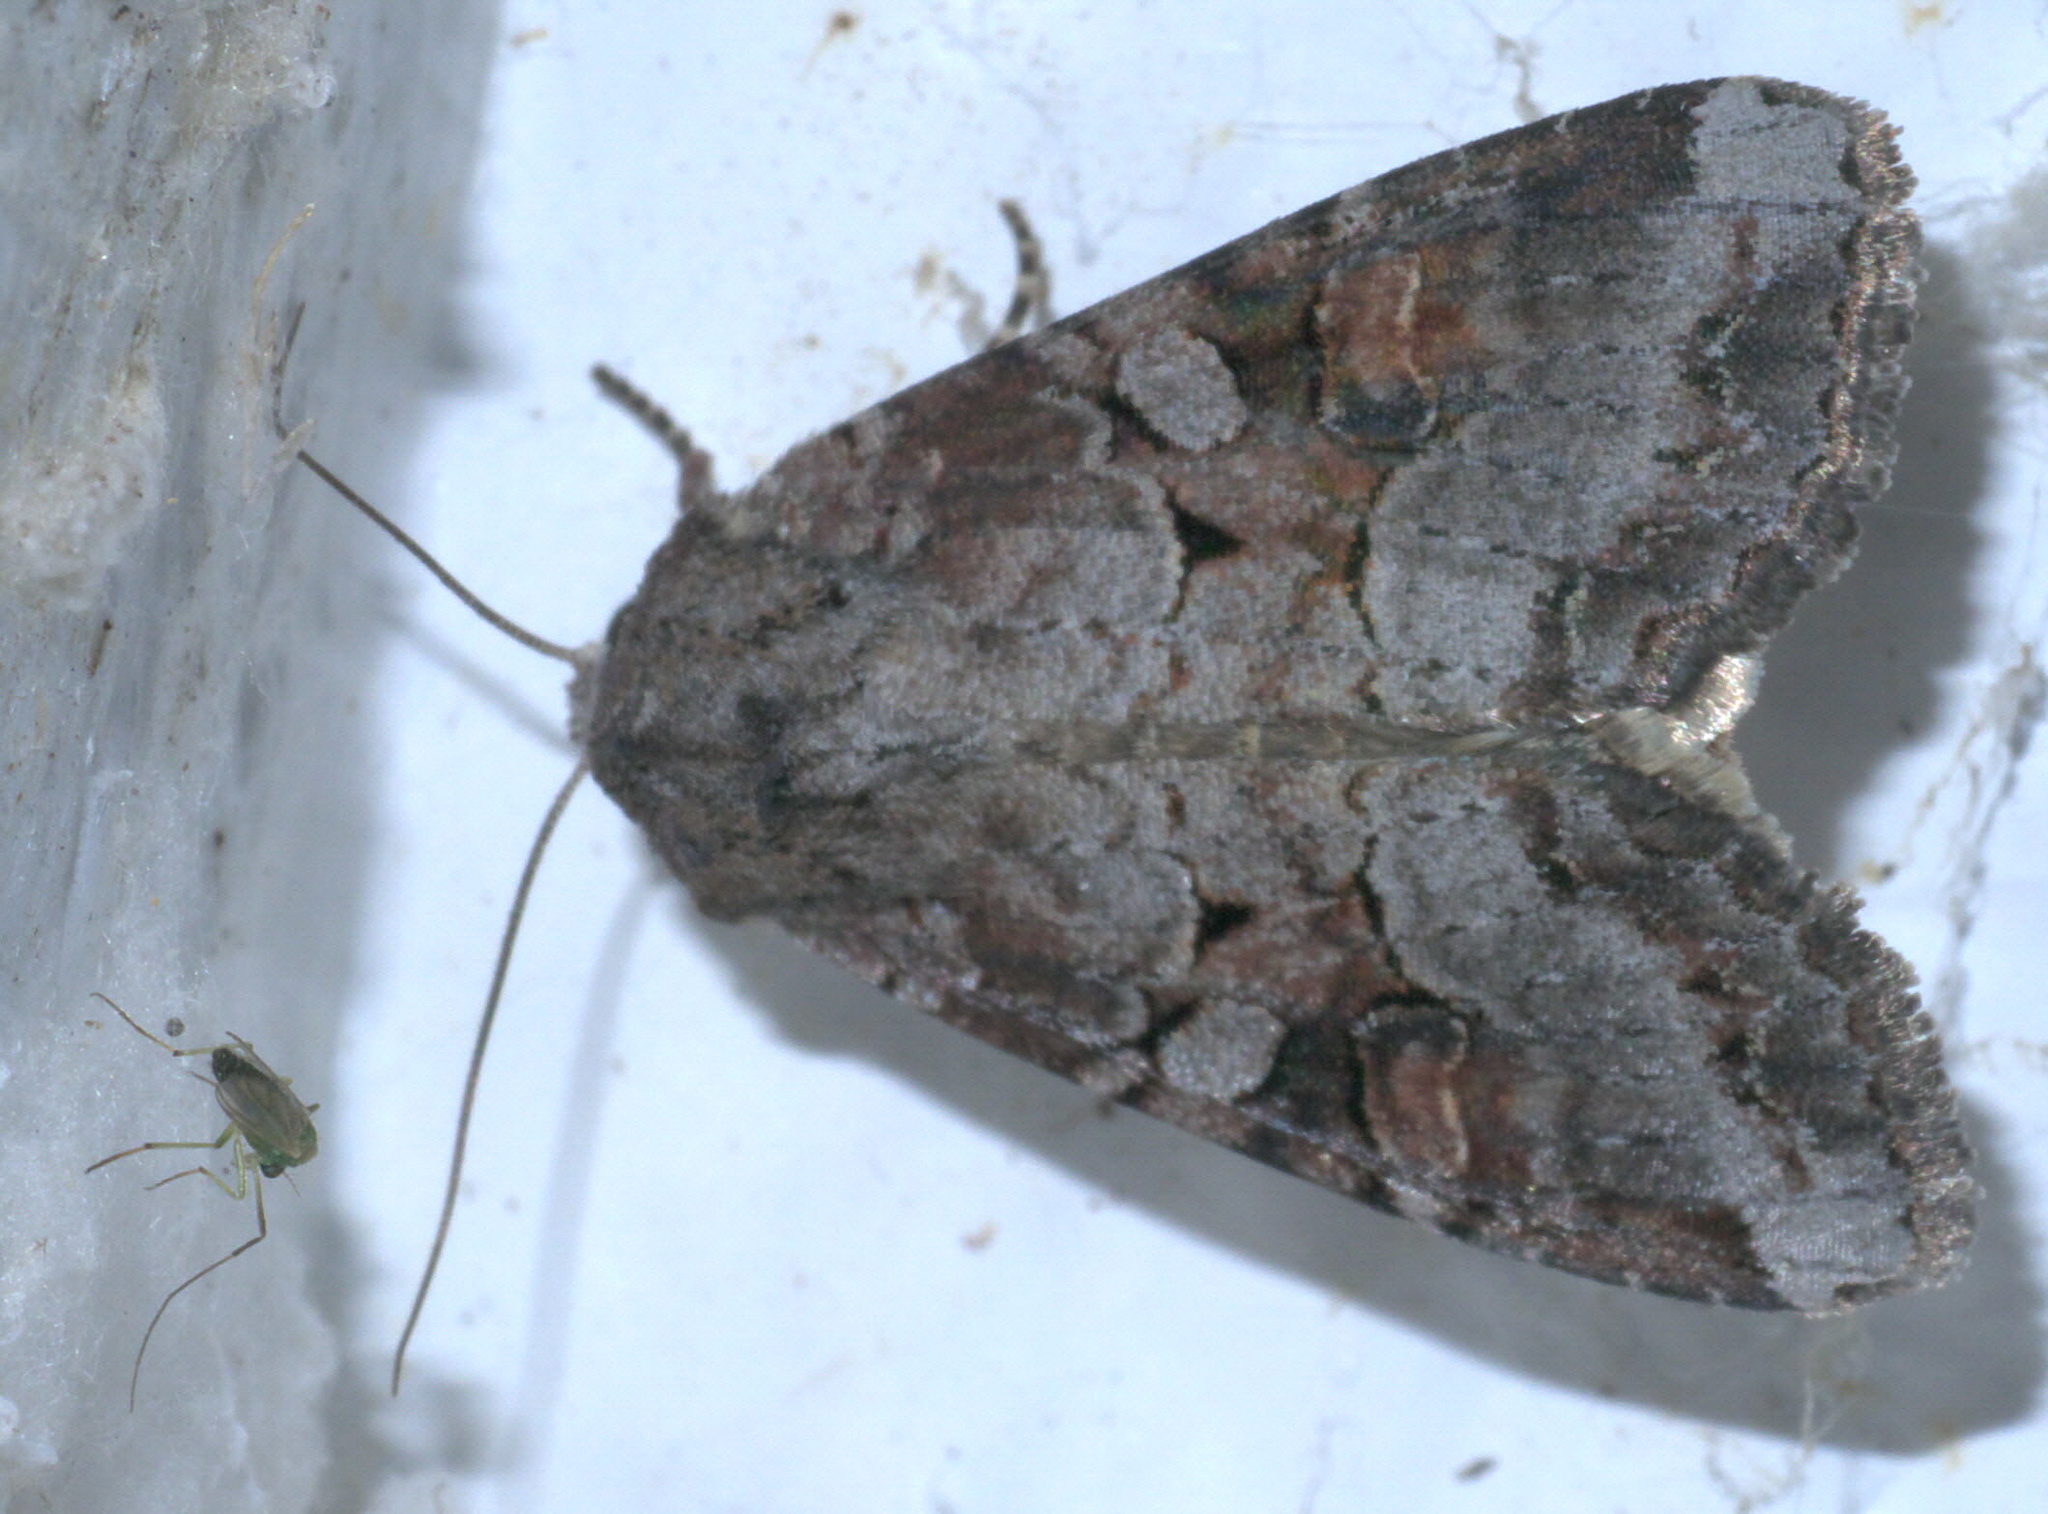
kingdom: Animalia
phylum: Arthropoda
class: Insecta
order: Lepidoptera
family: Noctuidae
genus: Trichordestra
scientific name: Trichordestra legitima
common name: Striped garden caterpillar
